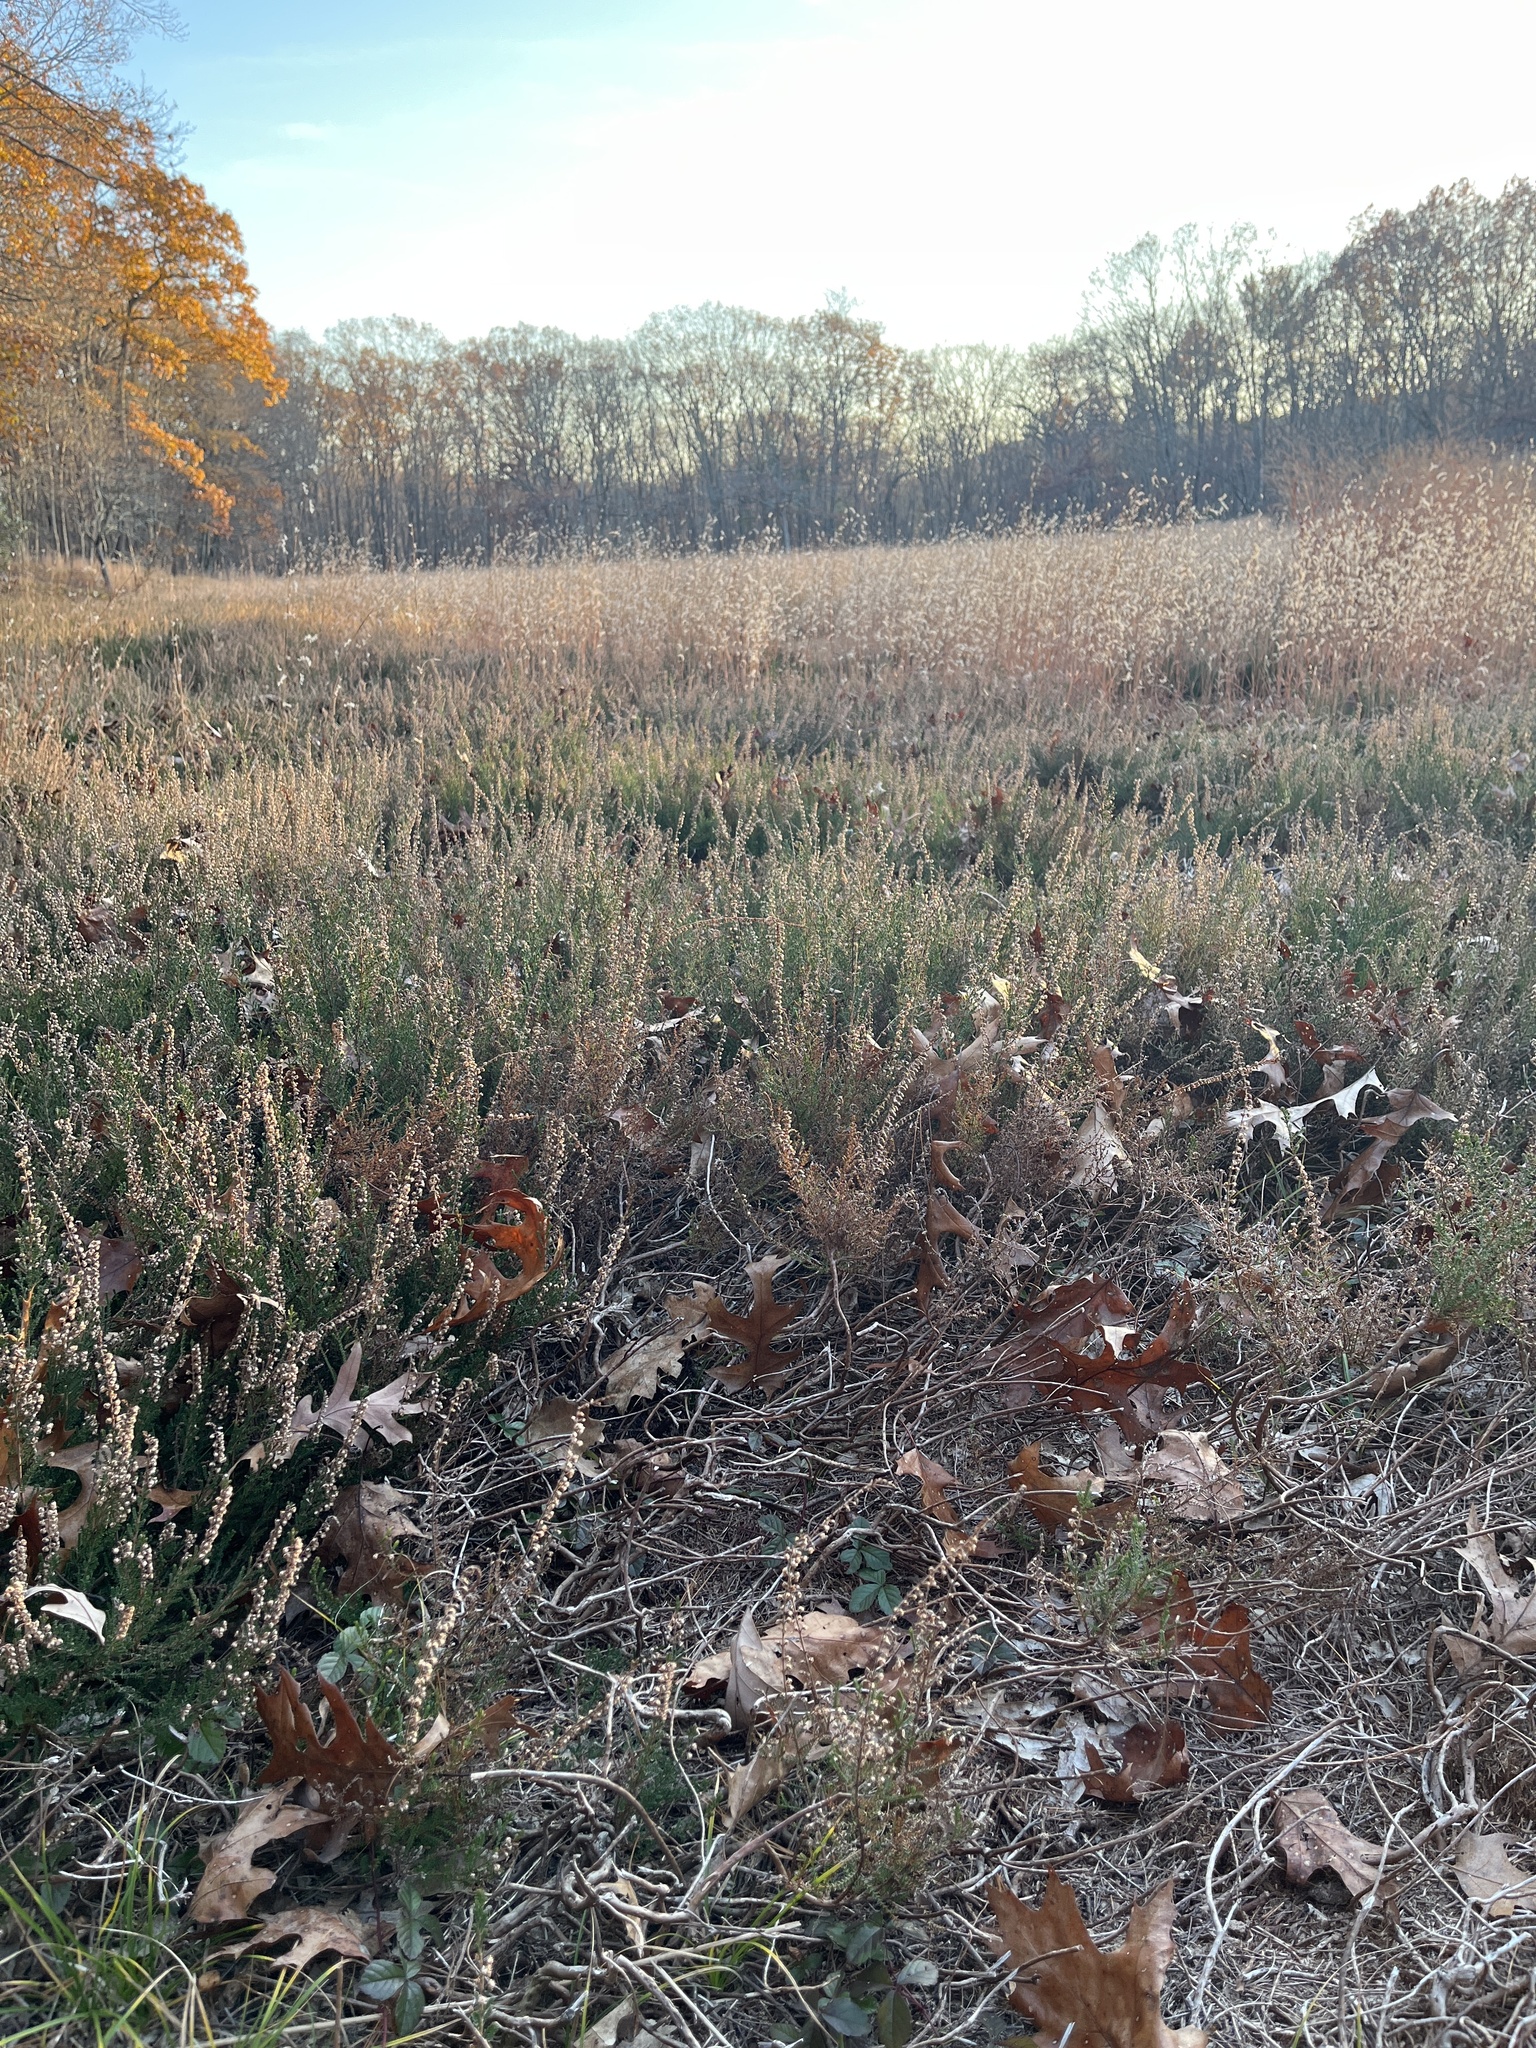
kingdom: Plantae
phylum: Tracheophyta
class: Magnoliopsida
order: Ericales
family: Ericaceae
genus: Calluna
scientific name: Calluna vulgaris
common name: Heather
